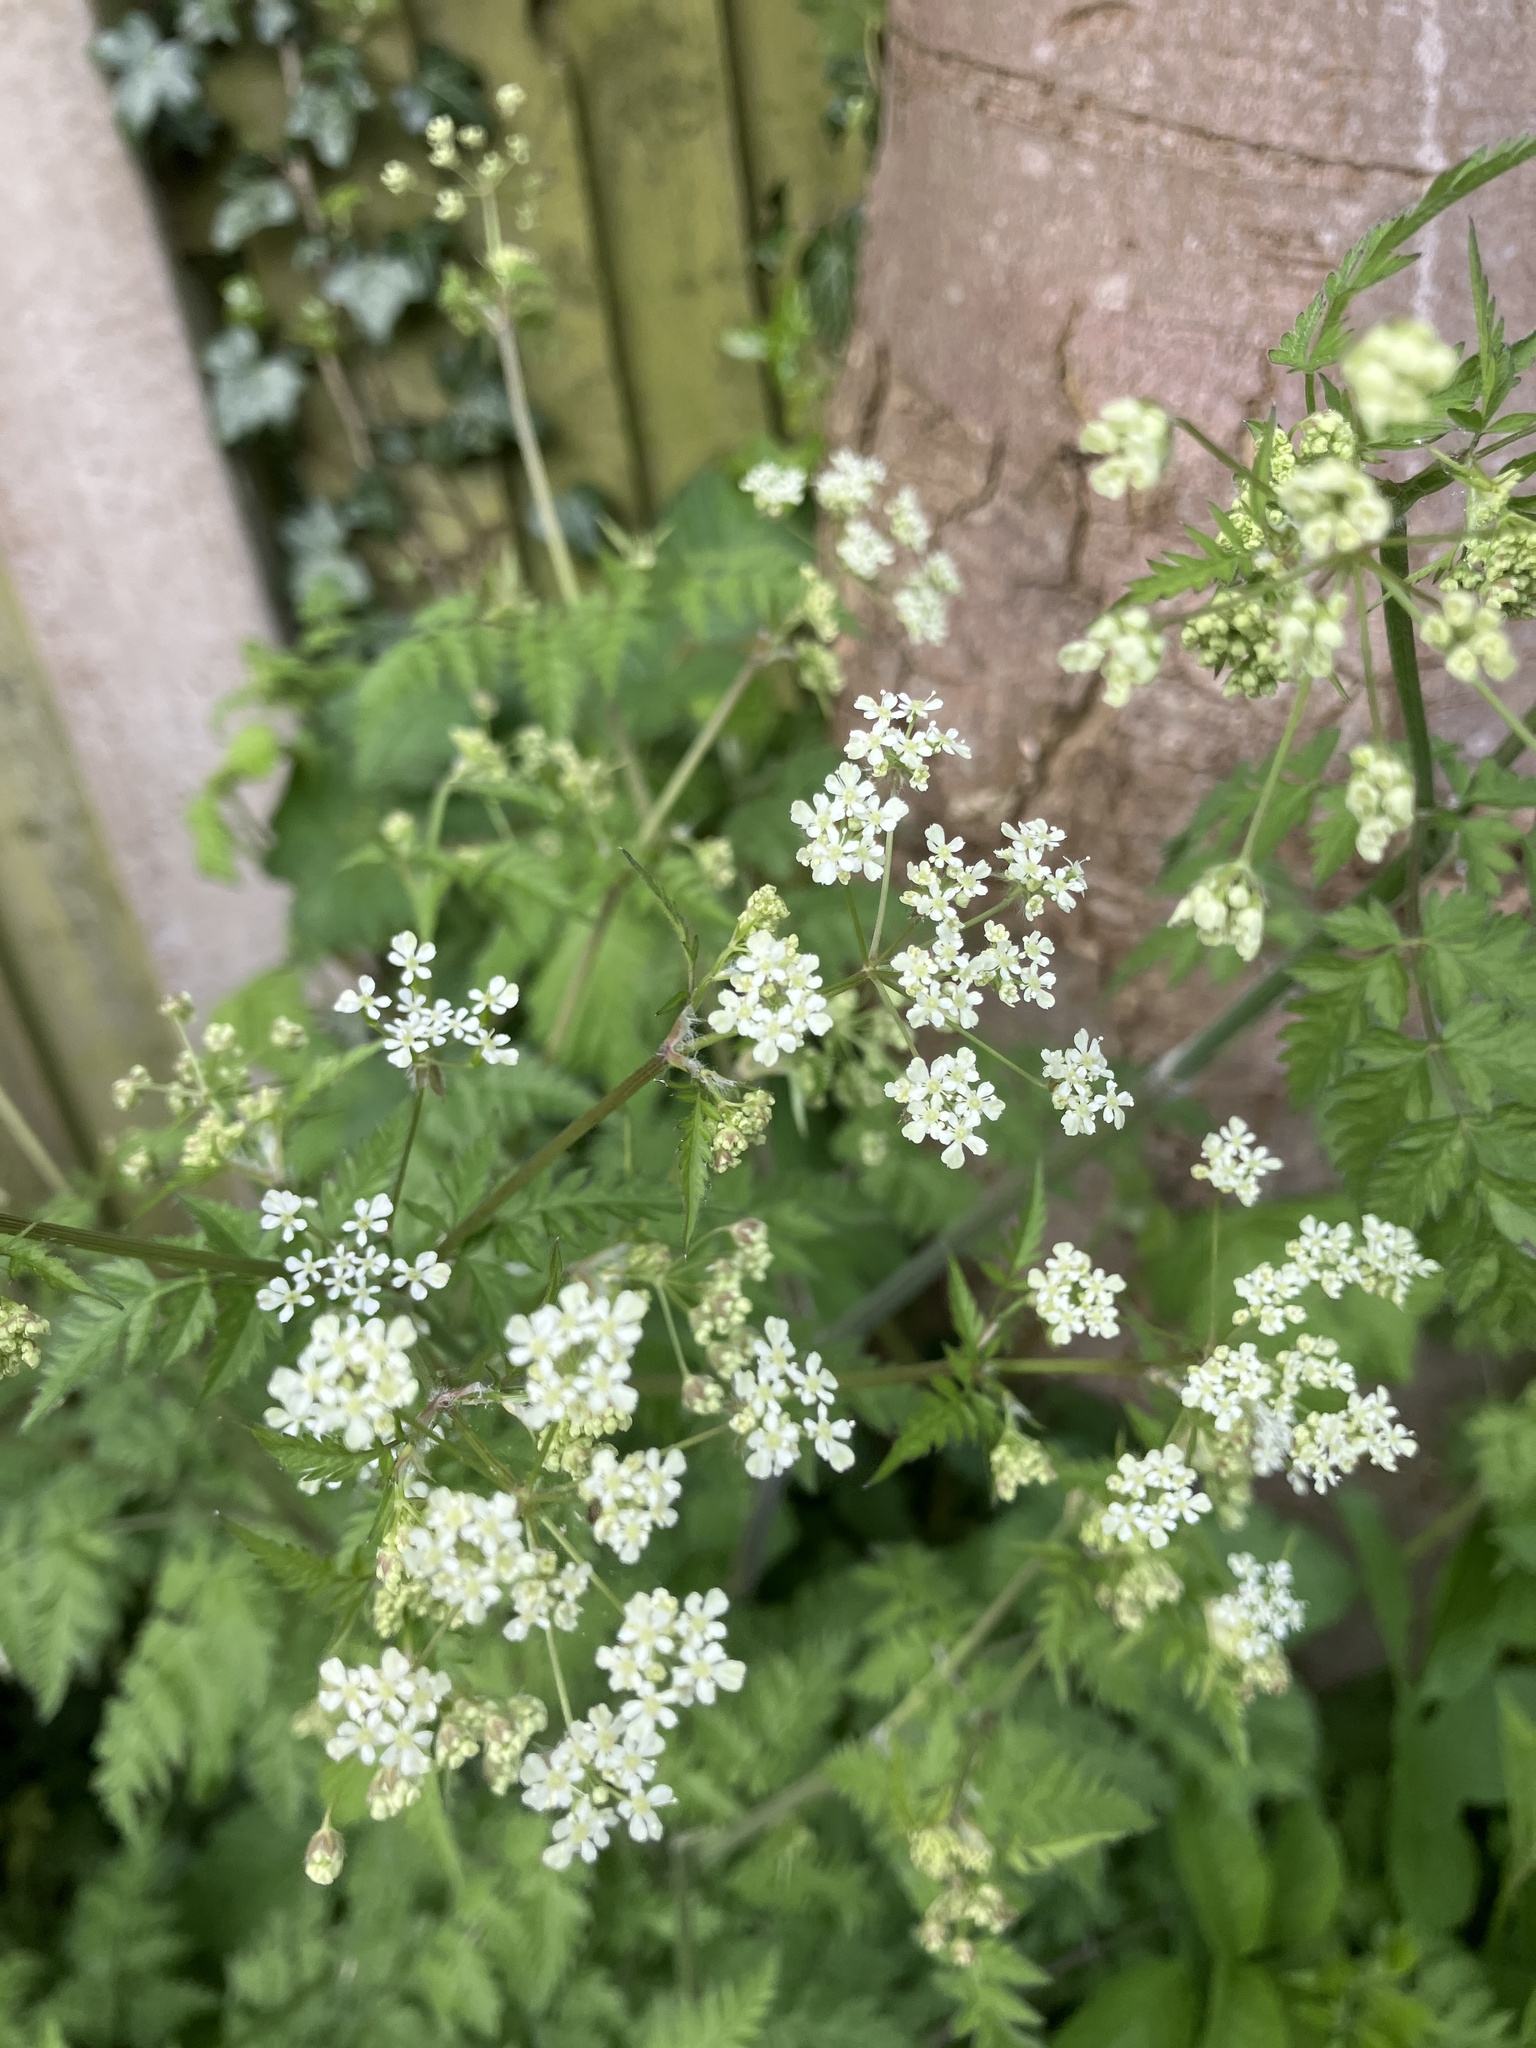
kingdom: Plantae
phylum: Tracheophyta
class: Magnoliopsida
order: Apiales
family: Apiaceae
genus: Anthriscus
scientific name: Anthriscus sylvestris
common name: Cow parsley
